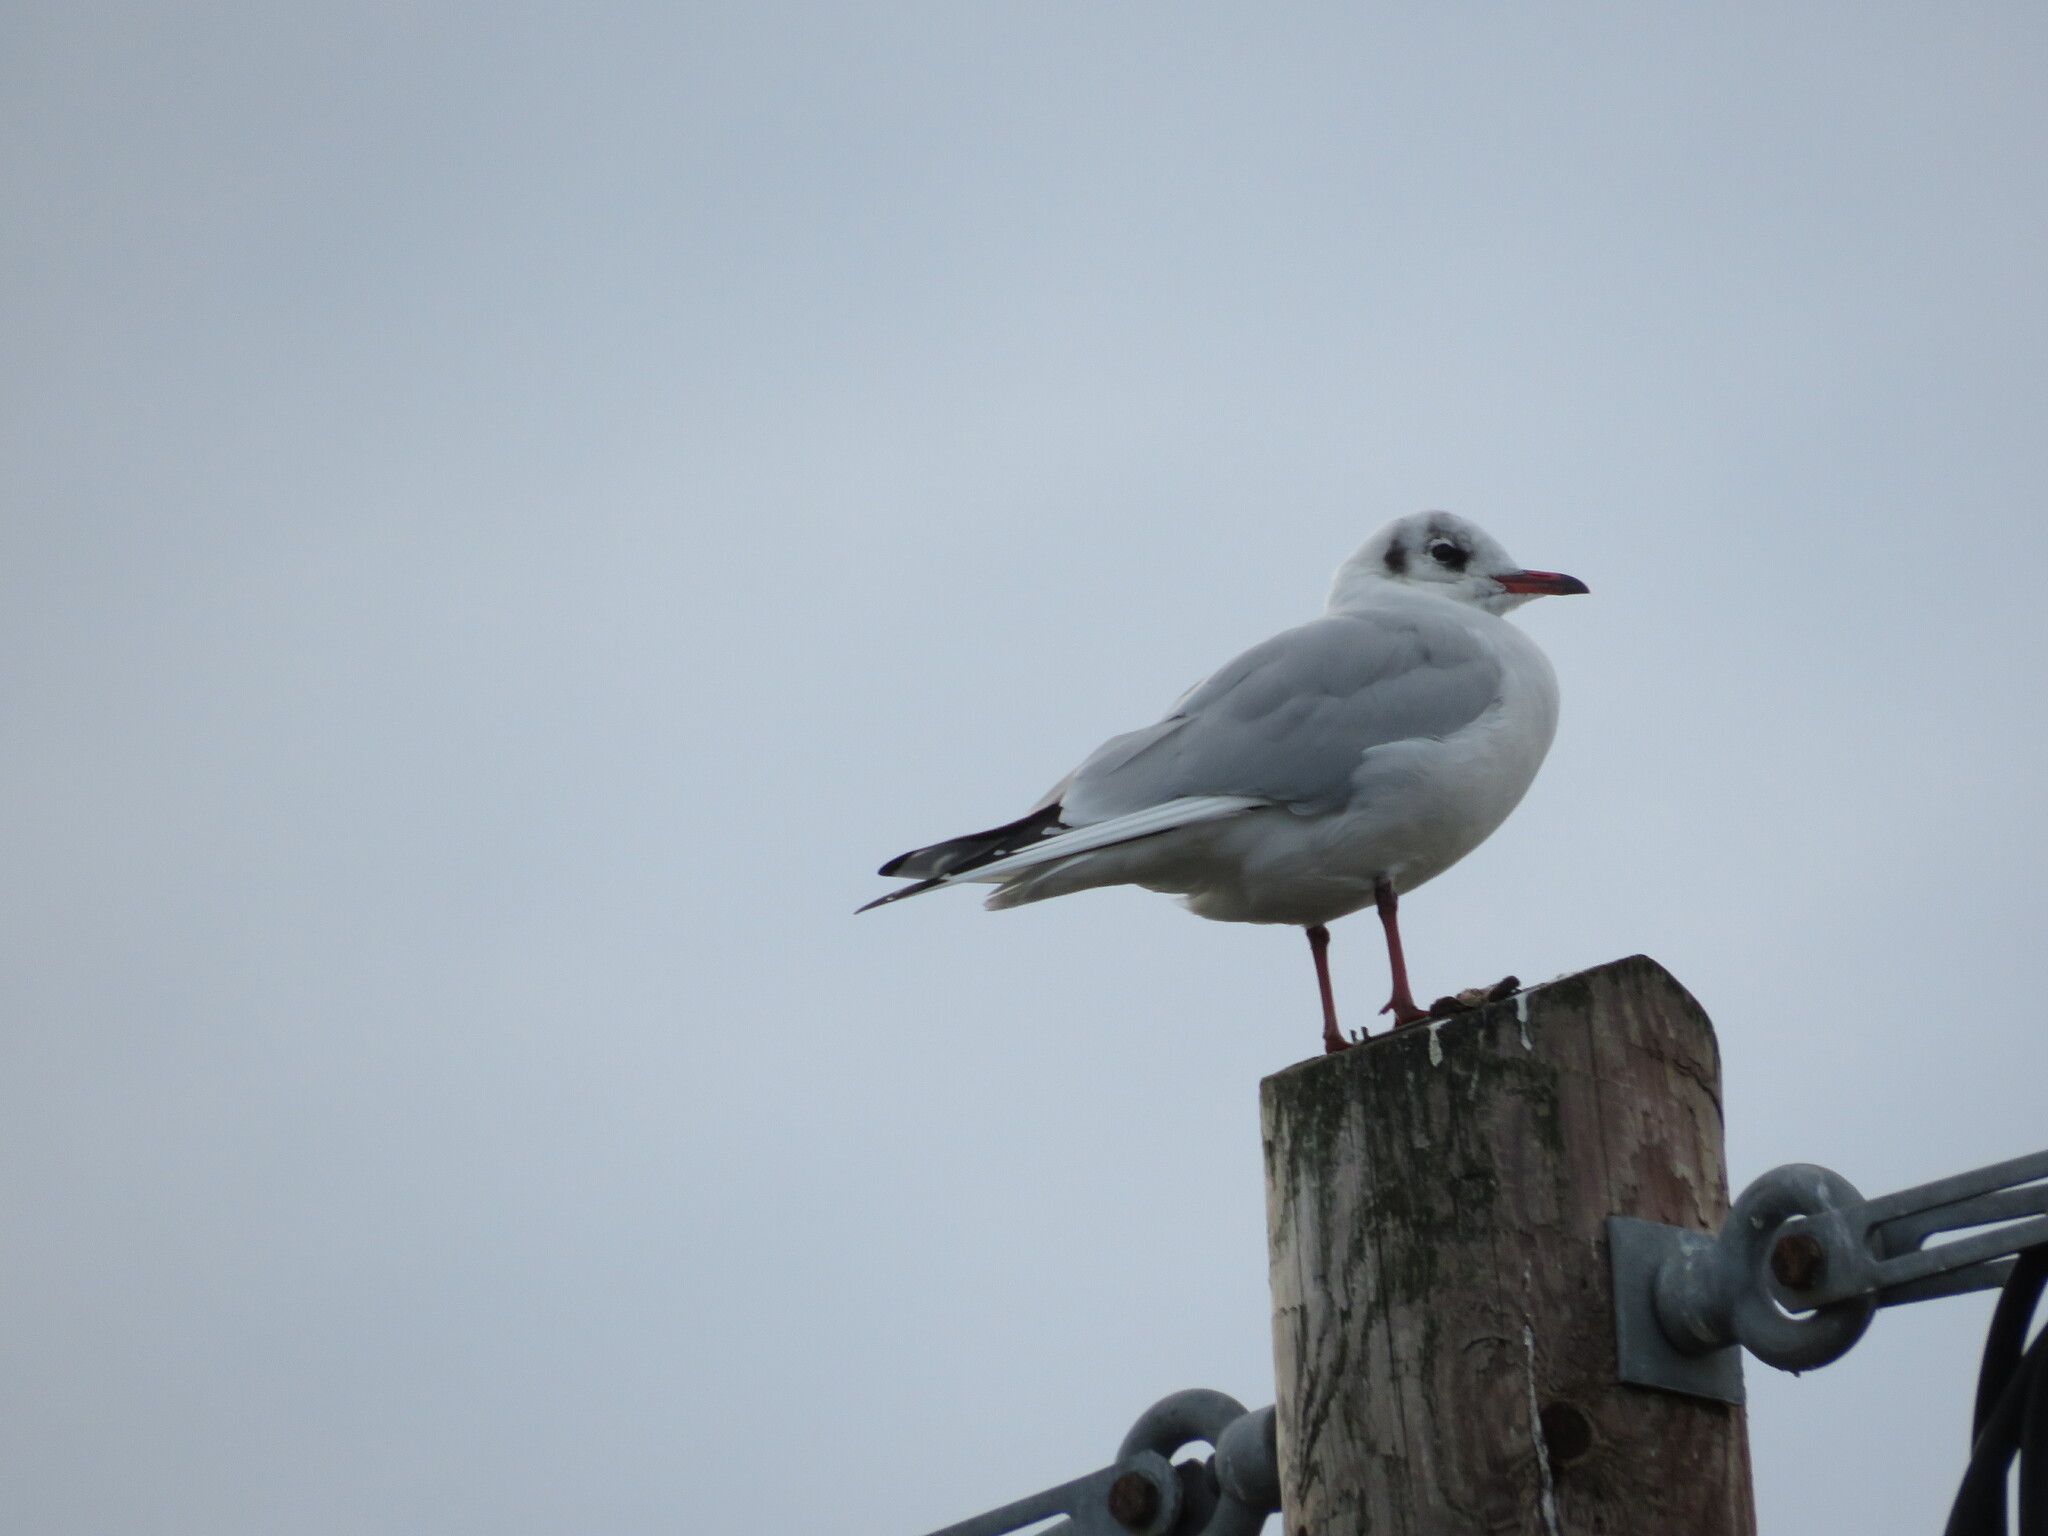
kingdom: Animalia
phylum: Chordata
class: Aves
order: Charadriiformes
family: Laridae
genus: Chroicocephalus
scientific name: Chroicocephalus ridibundus
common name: Black-headed gull
